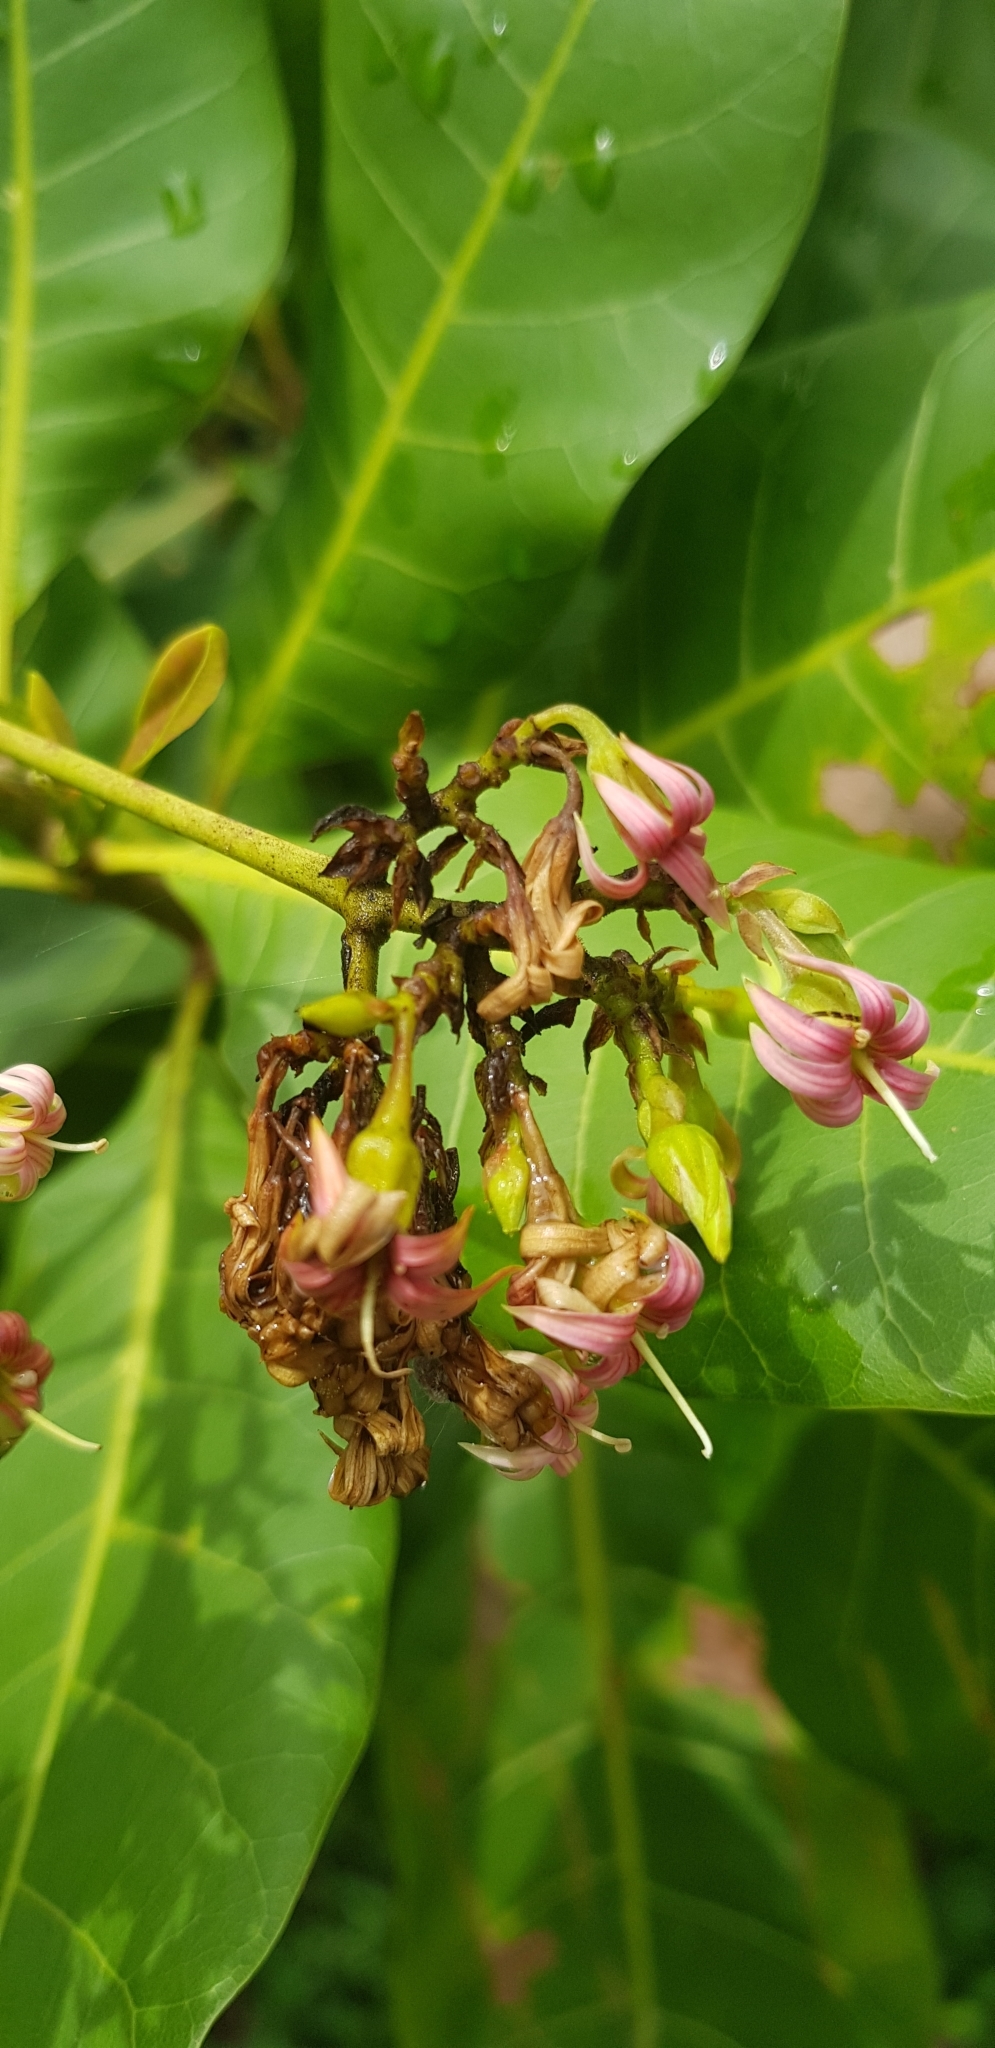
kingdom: Plantae
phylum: Tracheophyta
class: Magnoliopsida
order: Sapindales
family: Anacardiaceae
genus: Anacardium
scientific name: Anacardium occidentale
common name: Cashew
